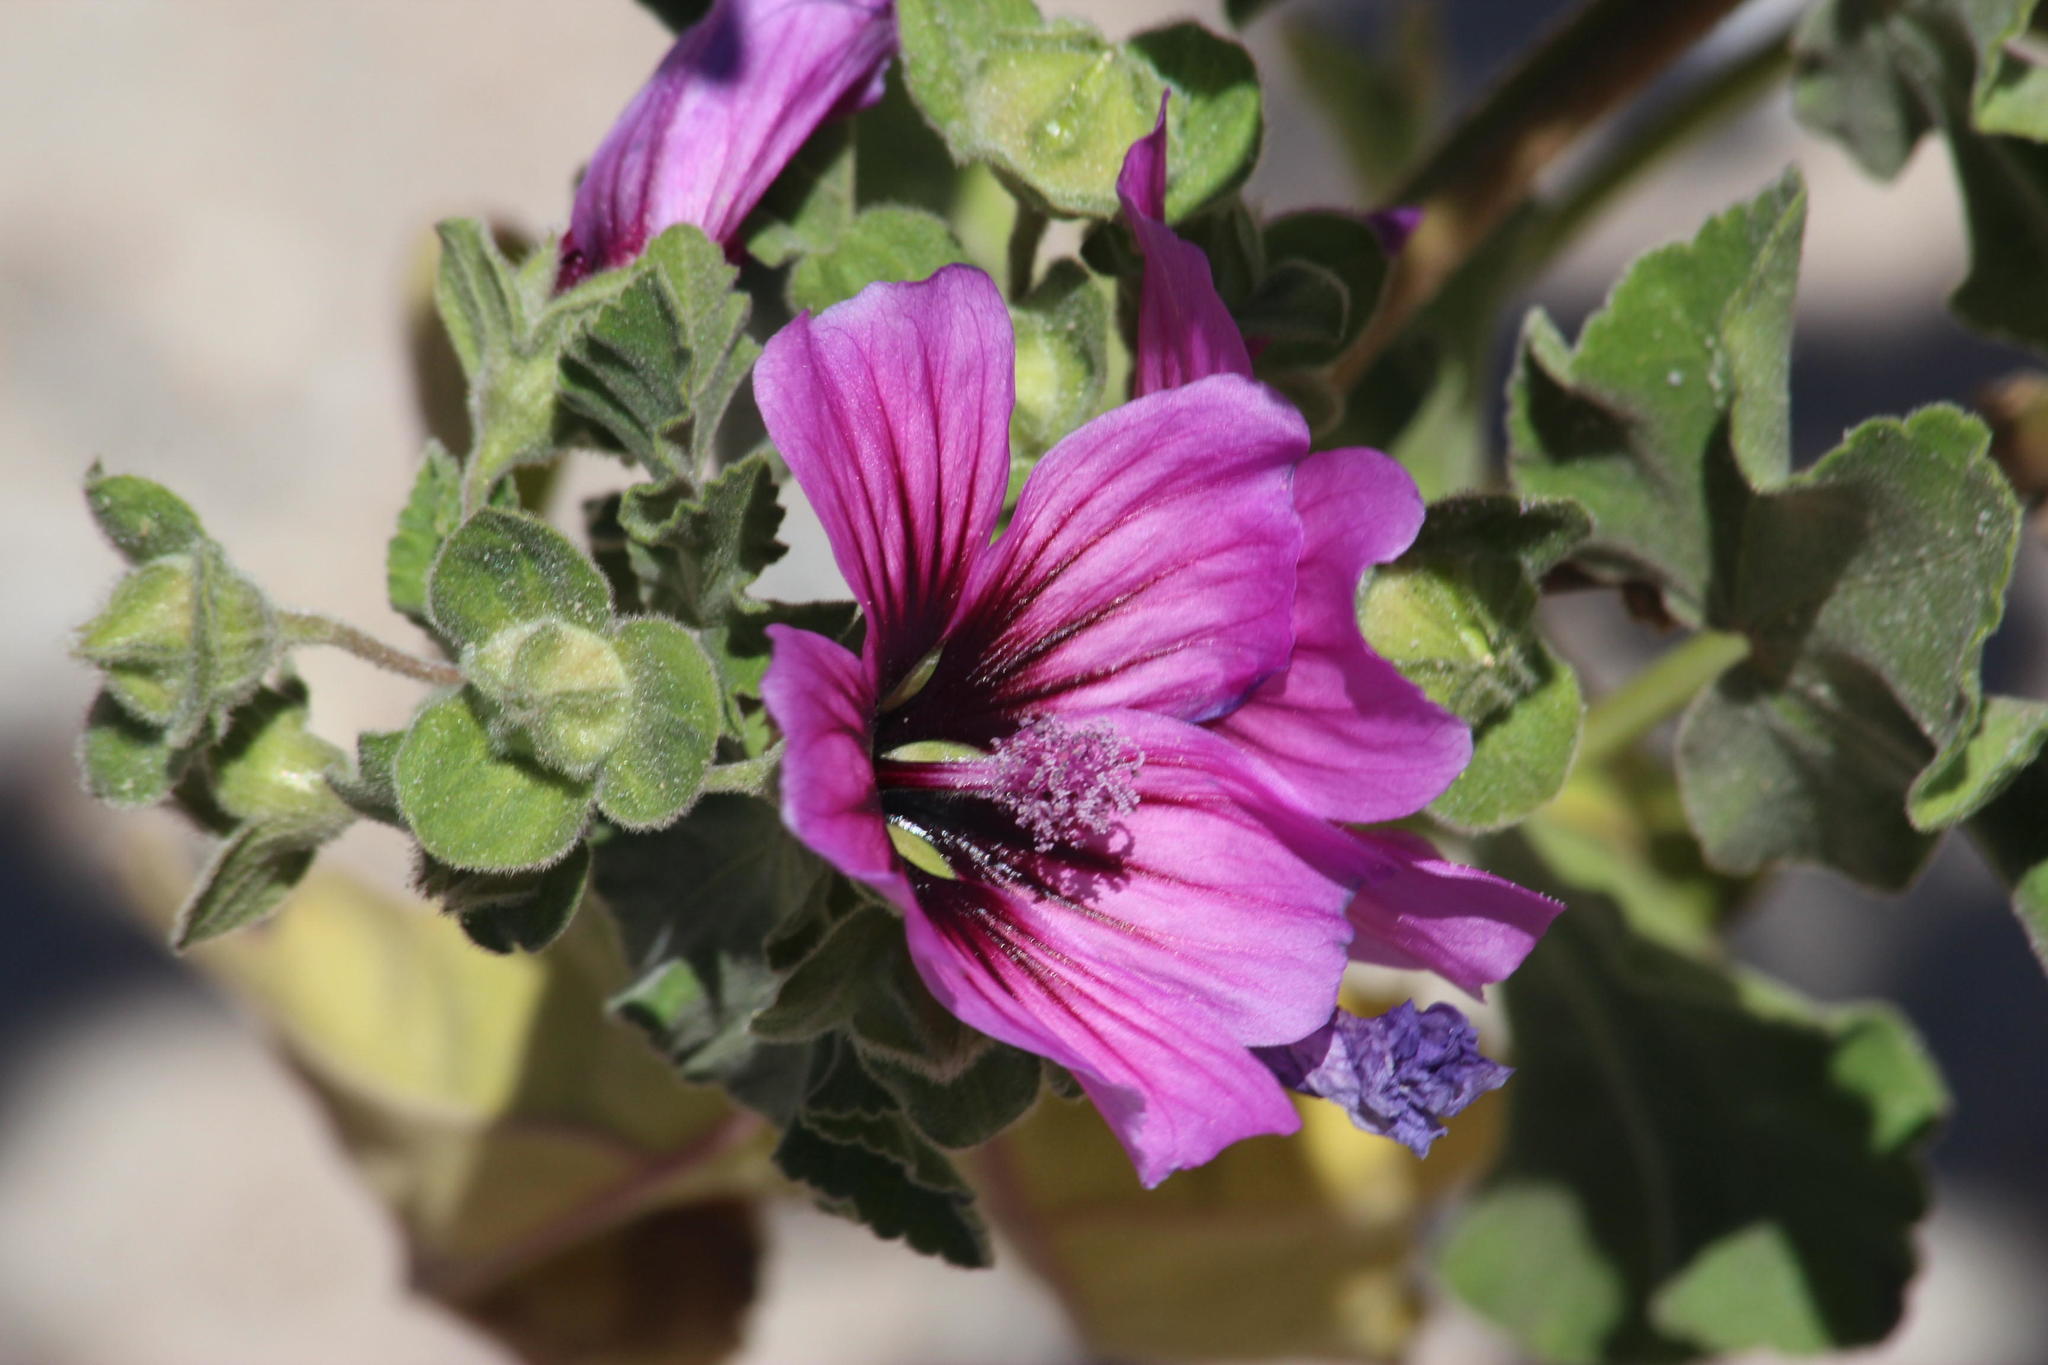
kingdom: Plantae
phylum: Tracheophyta
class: Magnoliopsida
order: Malvales
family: Malvaceae
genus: Malva
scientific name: Malva arborea
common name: Tree mallow
